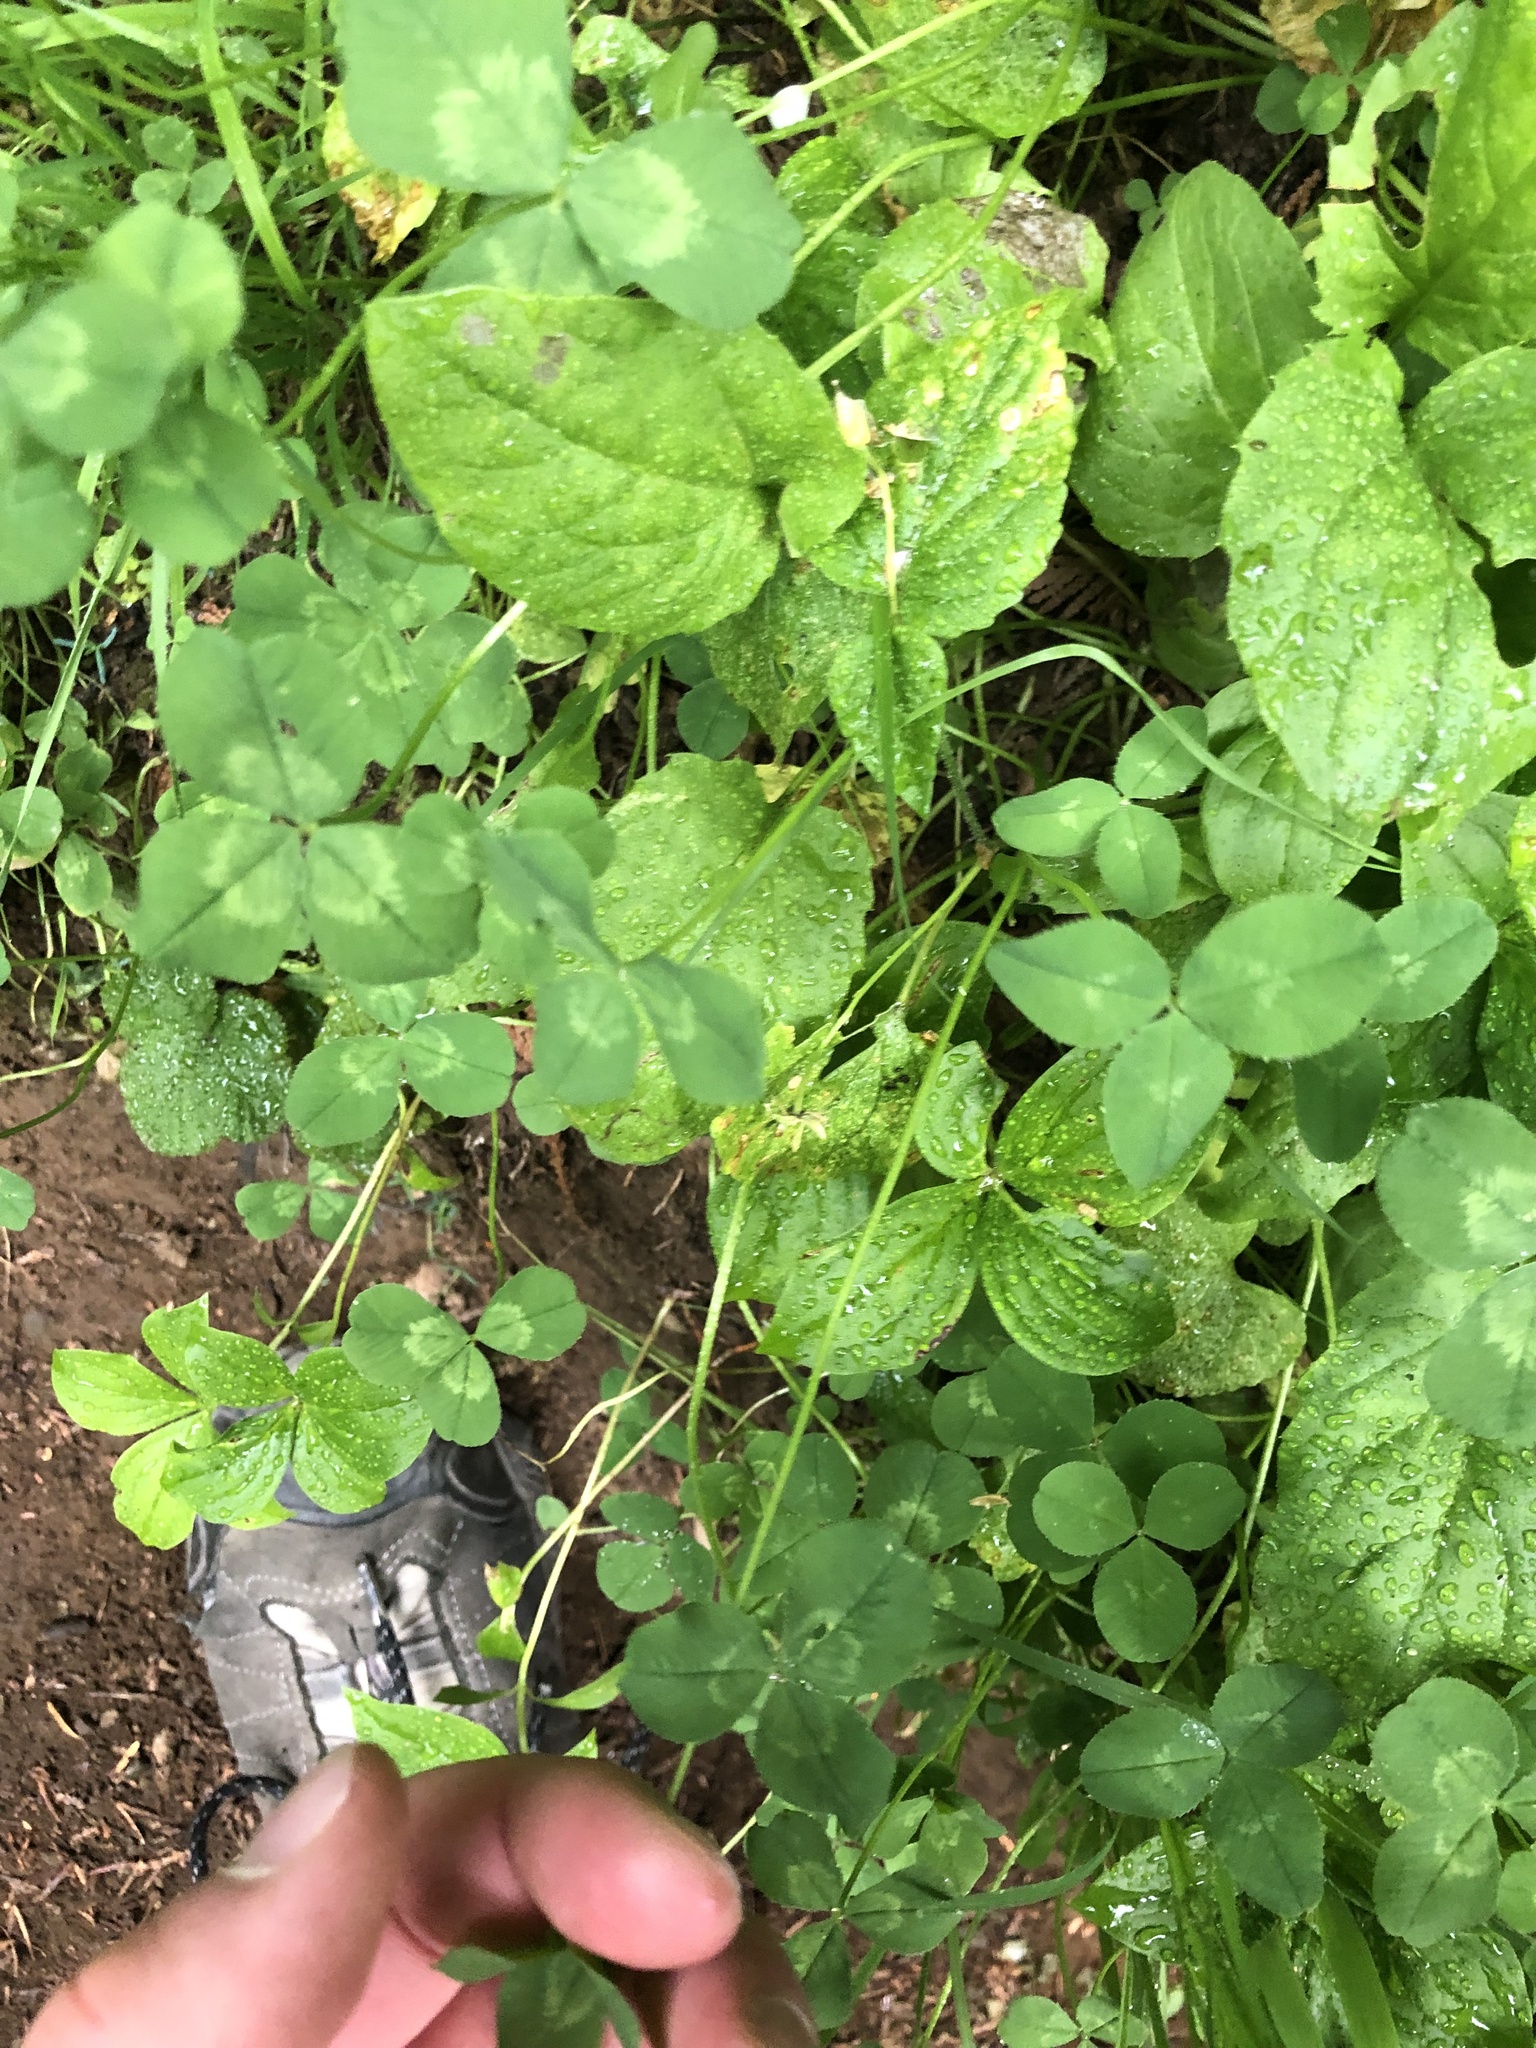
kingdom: Plantae
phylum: Tracheophyta
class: Magnoliopsida
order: Fabales
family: Fabaceae
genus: Trifolium
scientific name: Trifolium repens
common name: White clover
